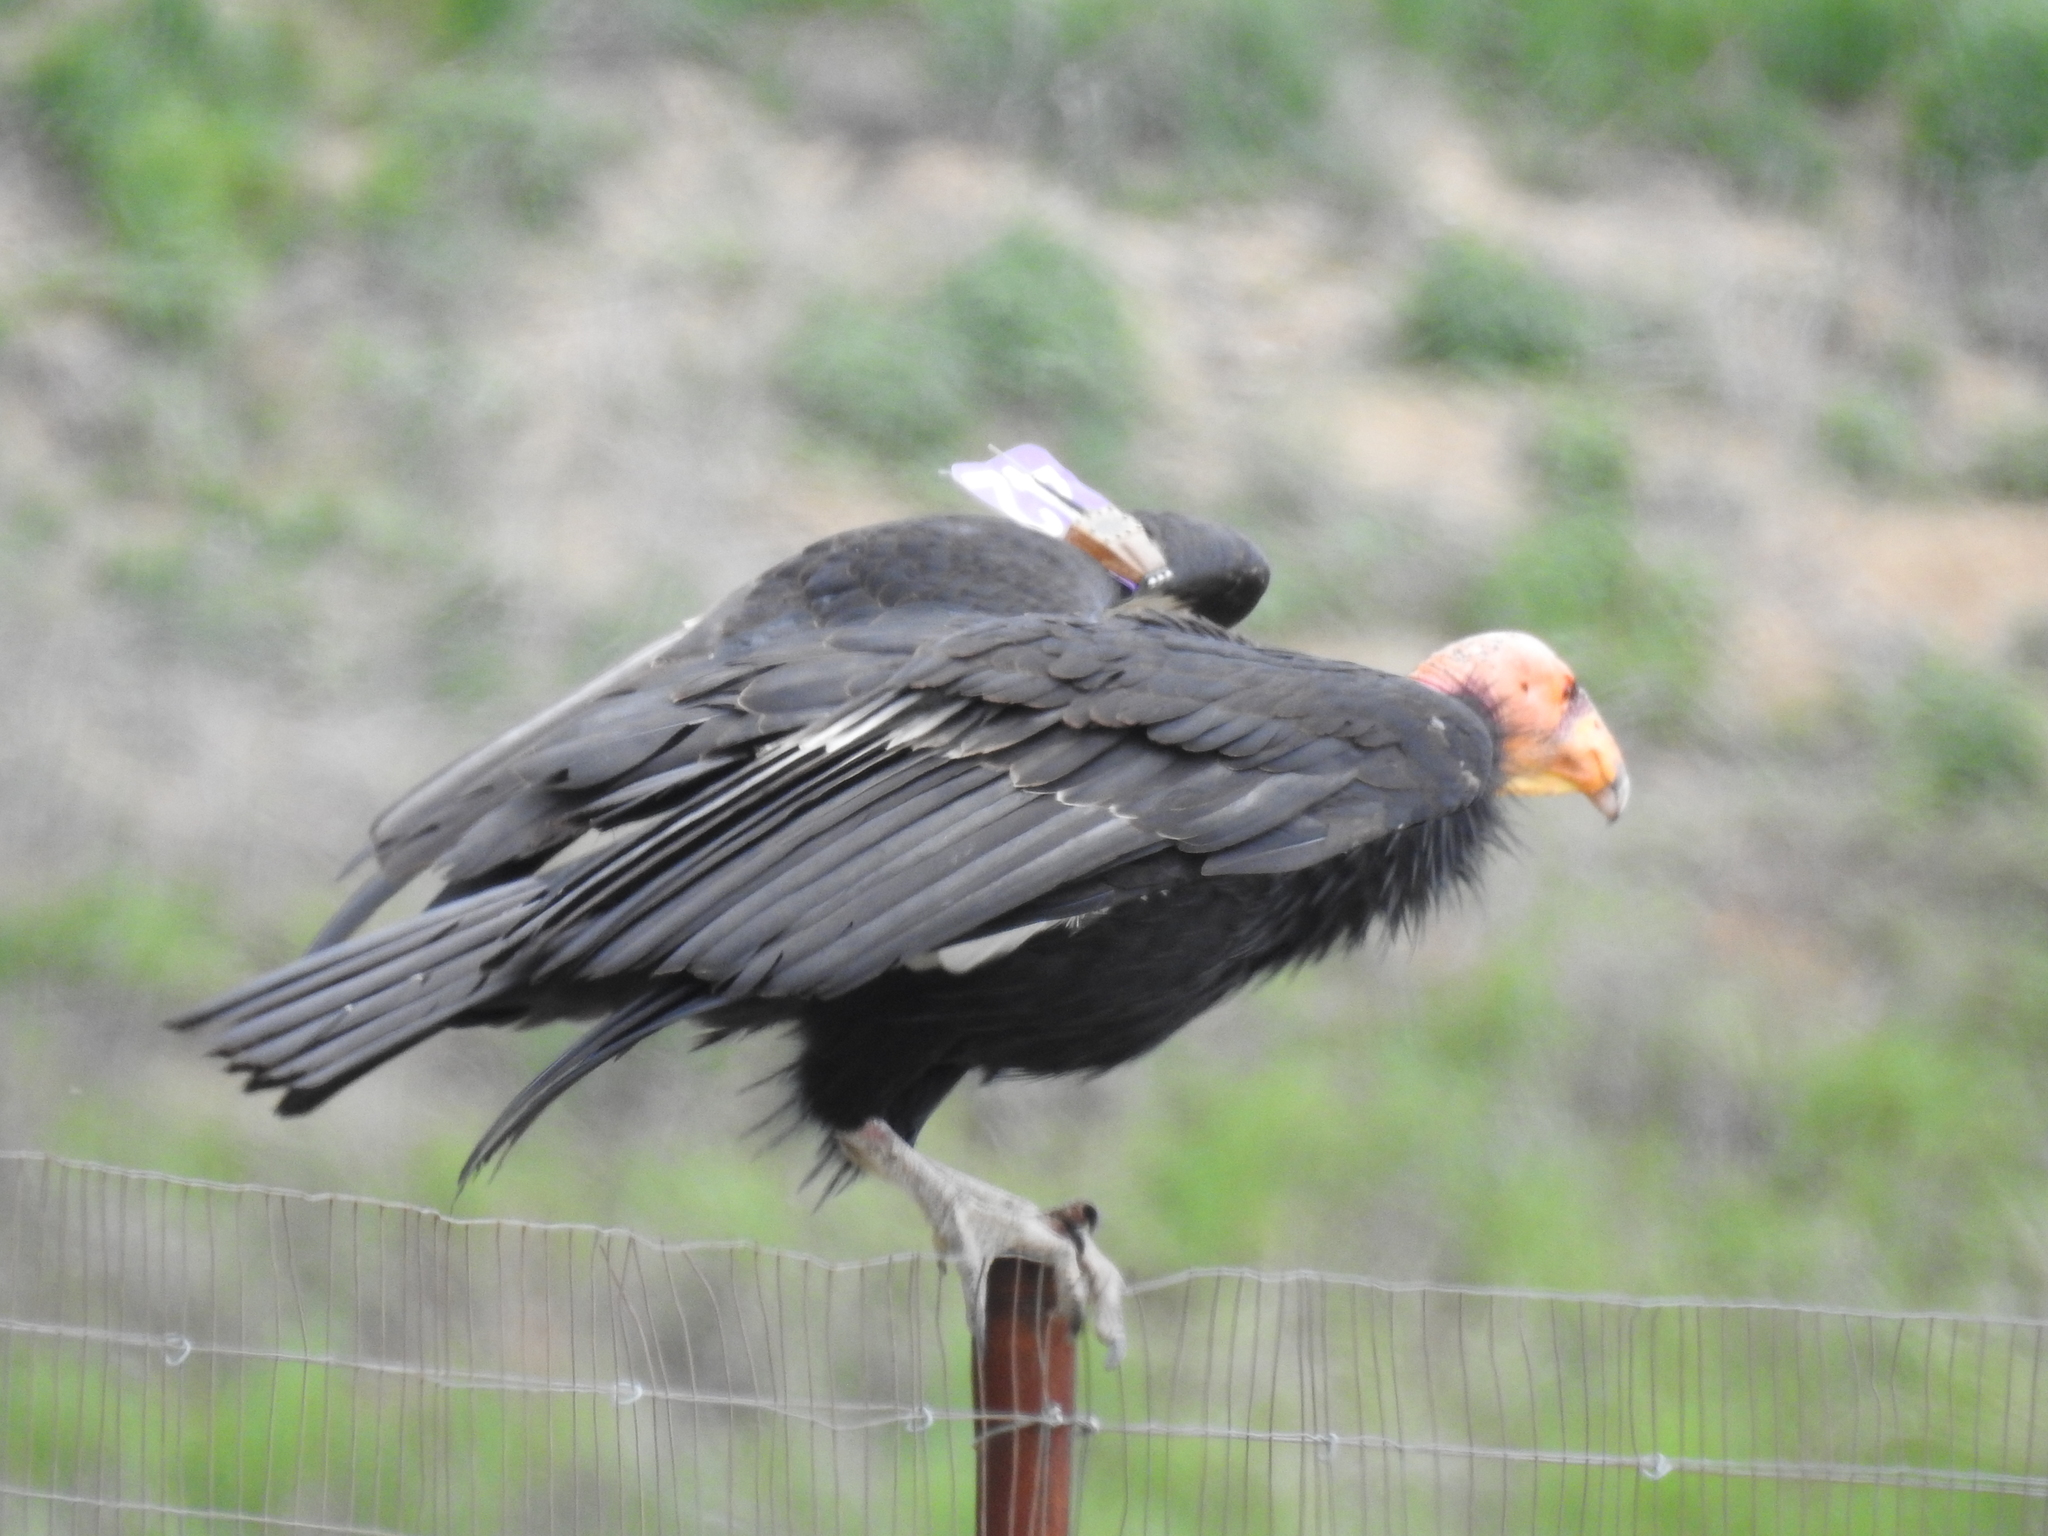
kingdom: Animalia
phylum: Chordata
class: Aves
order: Accipitriformes
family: Cathartidae
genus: Gymnogyps
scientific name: Gymnogyps californianus
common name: California condor
